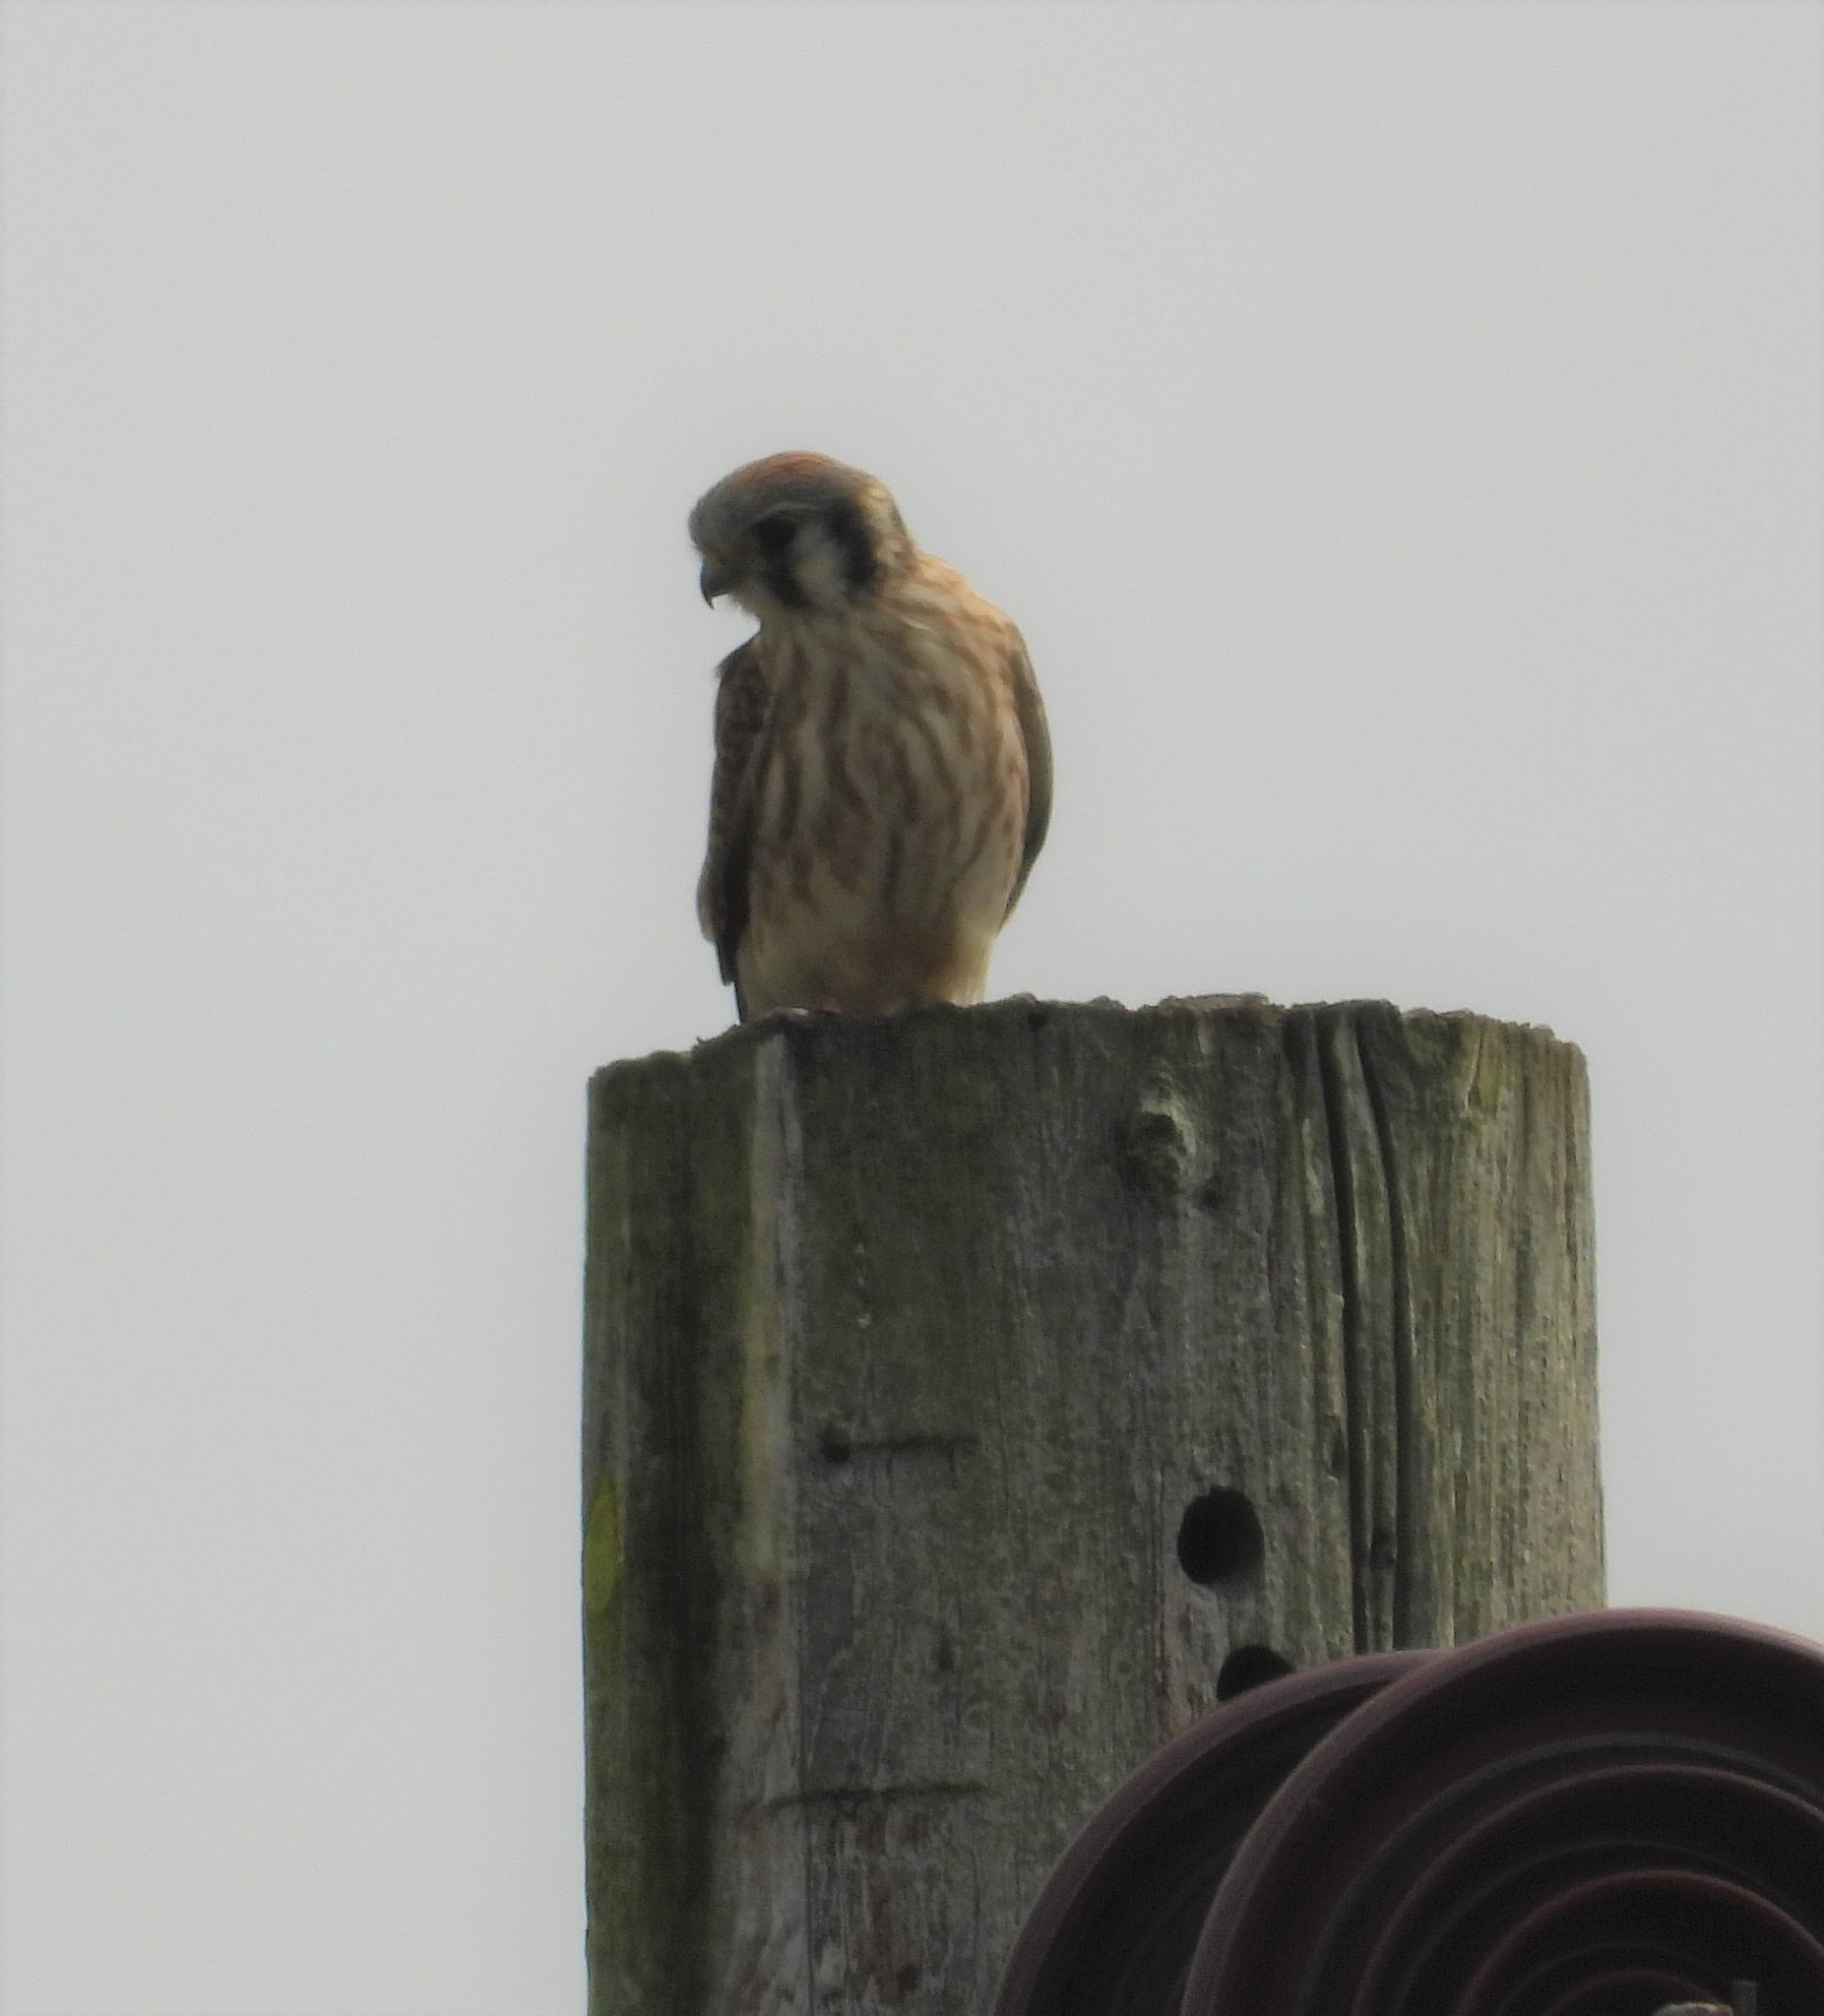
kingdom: Animalia
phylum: Chordata
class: Aves
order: Falconiformes
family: Falconidae
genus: Falco
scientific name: Falco sparverius
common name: American kestrel
